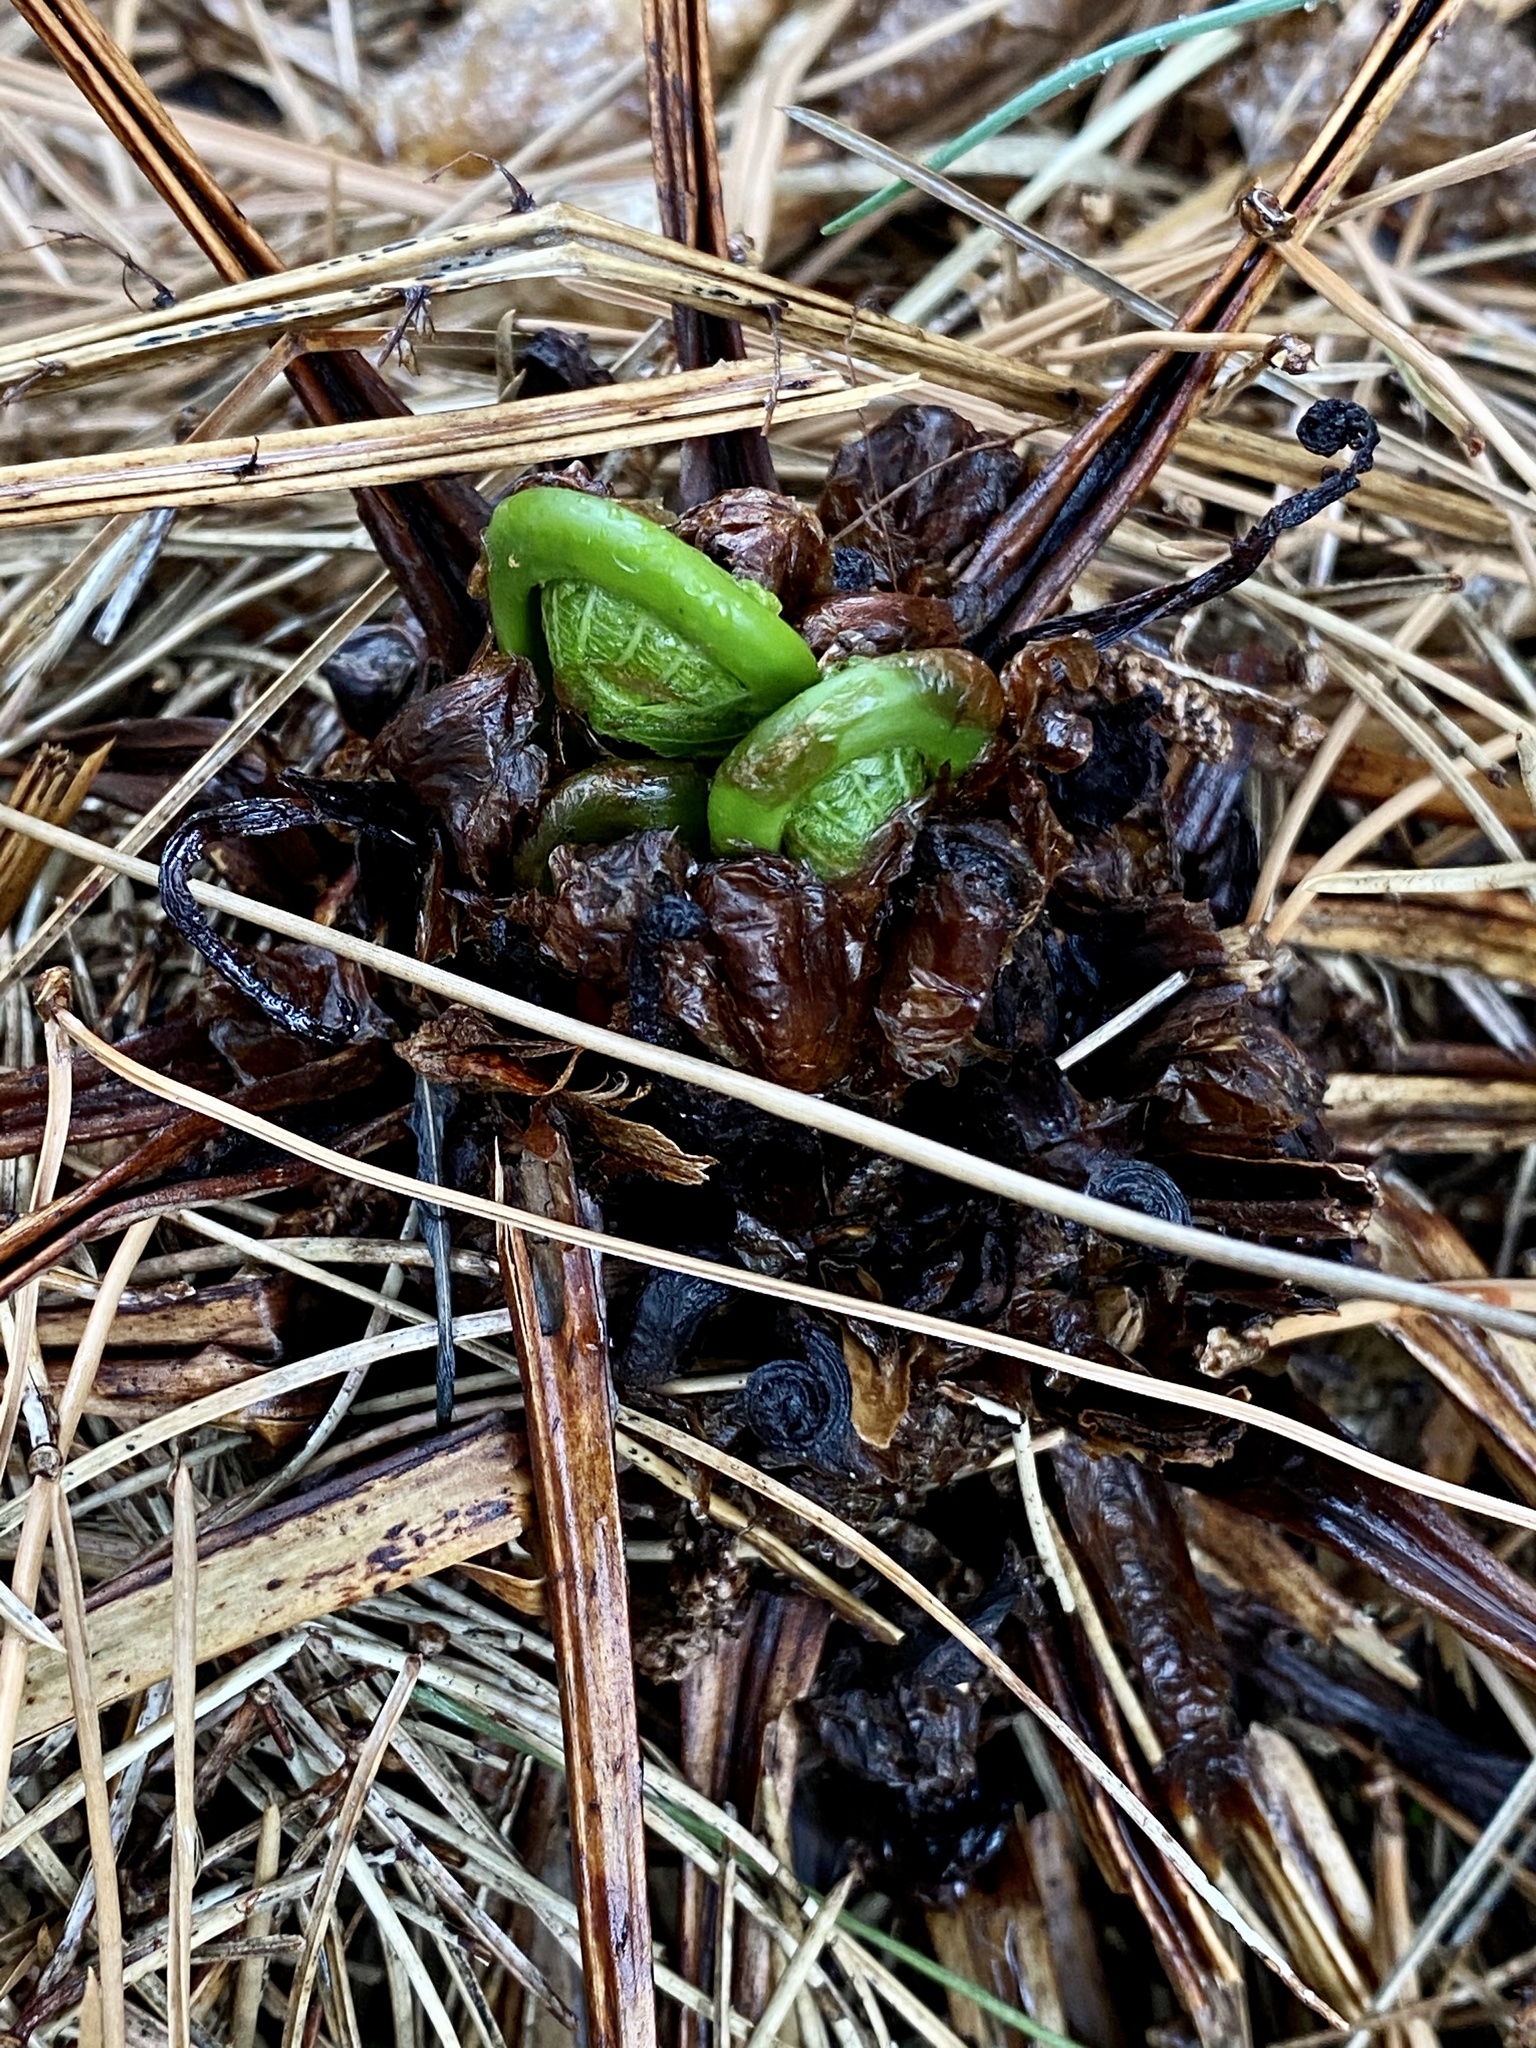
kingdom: Plantae
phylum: Tracheophyta
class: Polypodiopsida
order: Polypodiales
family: Onocleaceae
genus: Matteuccia
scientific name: Matteuccia struthiopteris
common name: Ostrich fern
